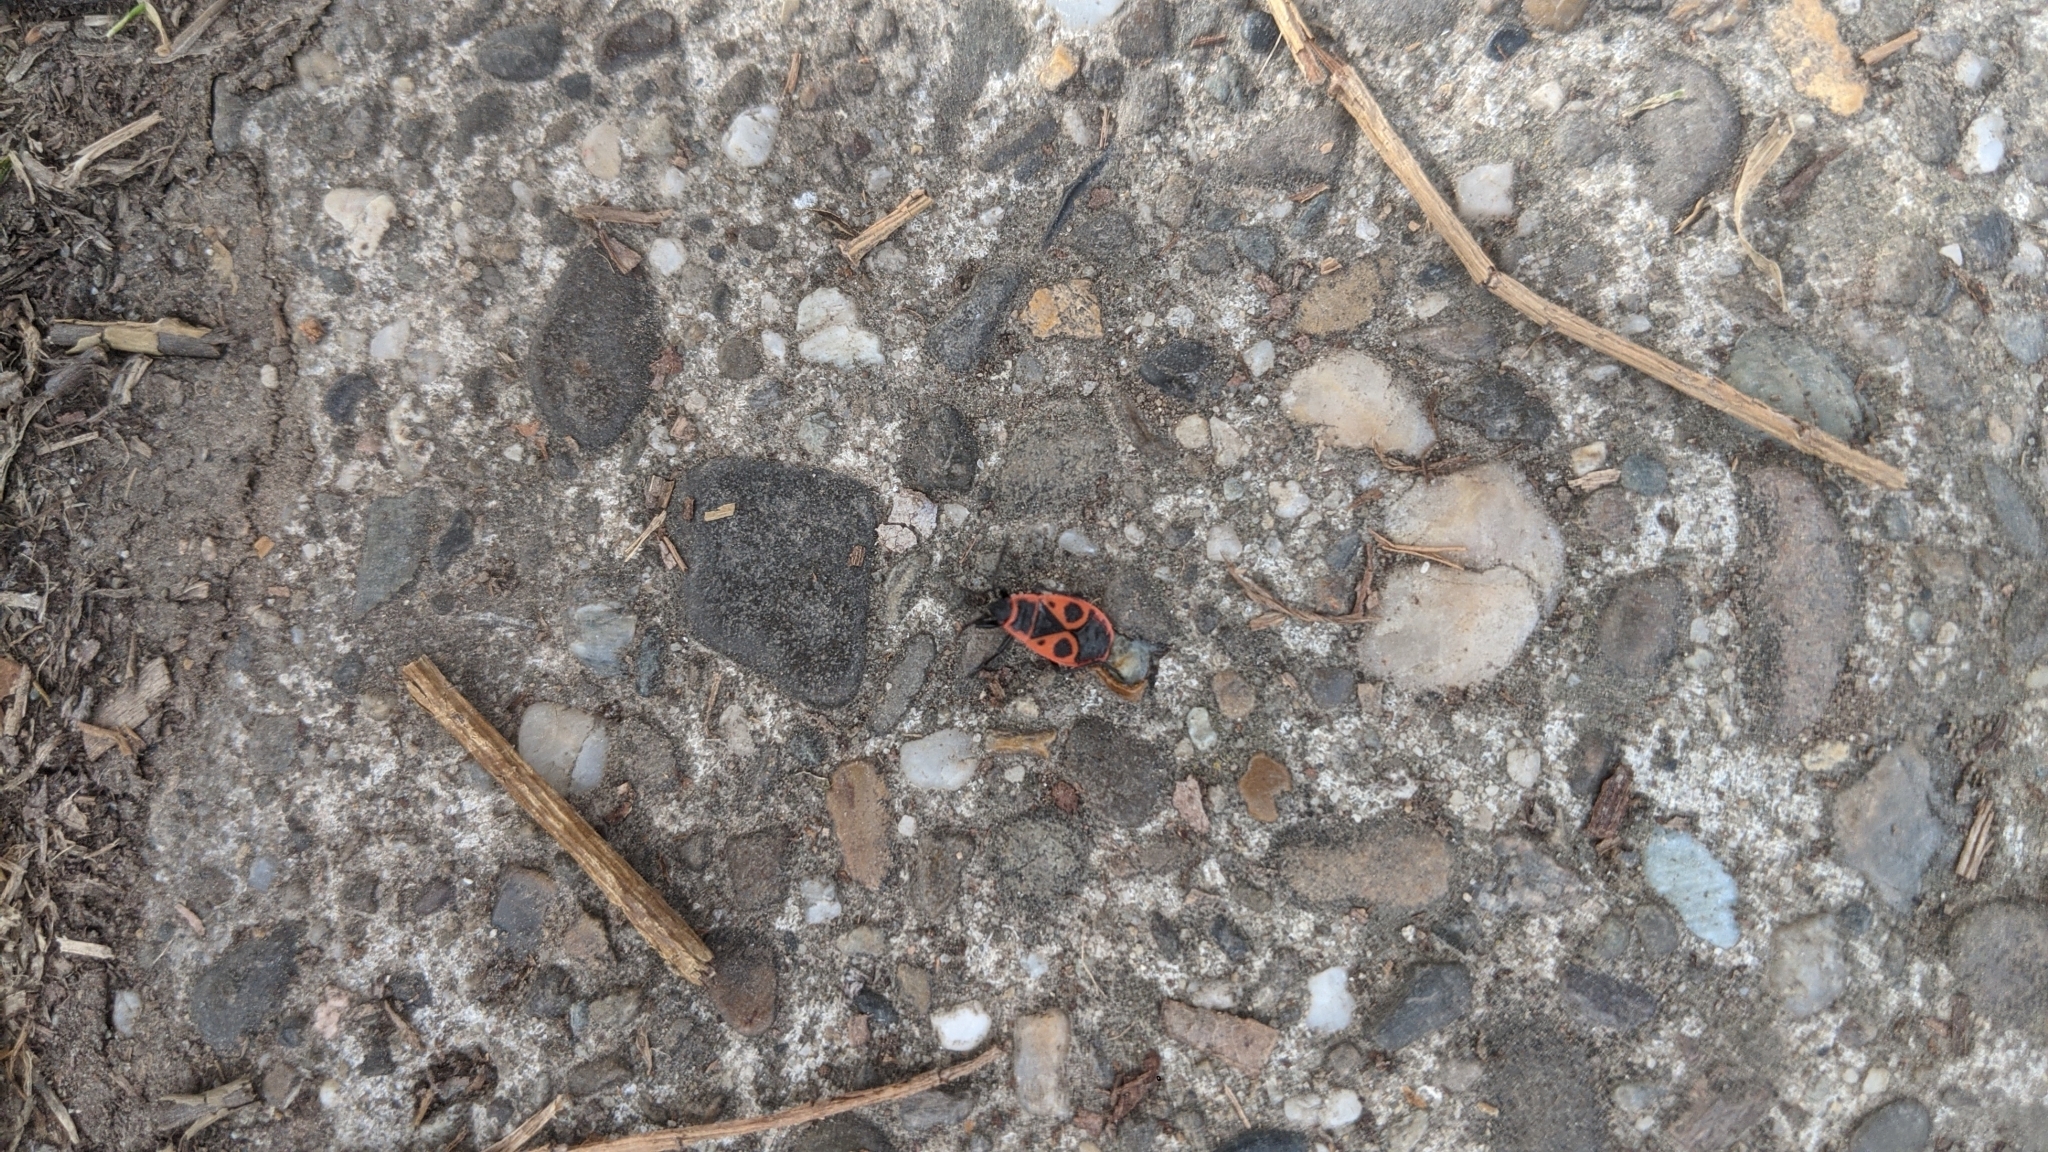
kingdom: Animalia
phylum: Arthropoda
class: Insecta
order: Hemiptera
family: Pyrrhocoridae
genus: Pyrrhocoris
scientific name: Pyrrhocoris apterus
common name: Firebug
